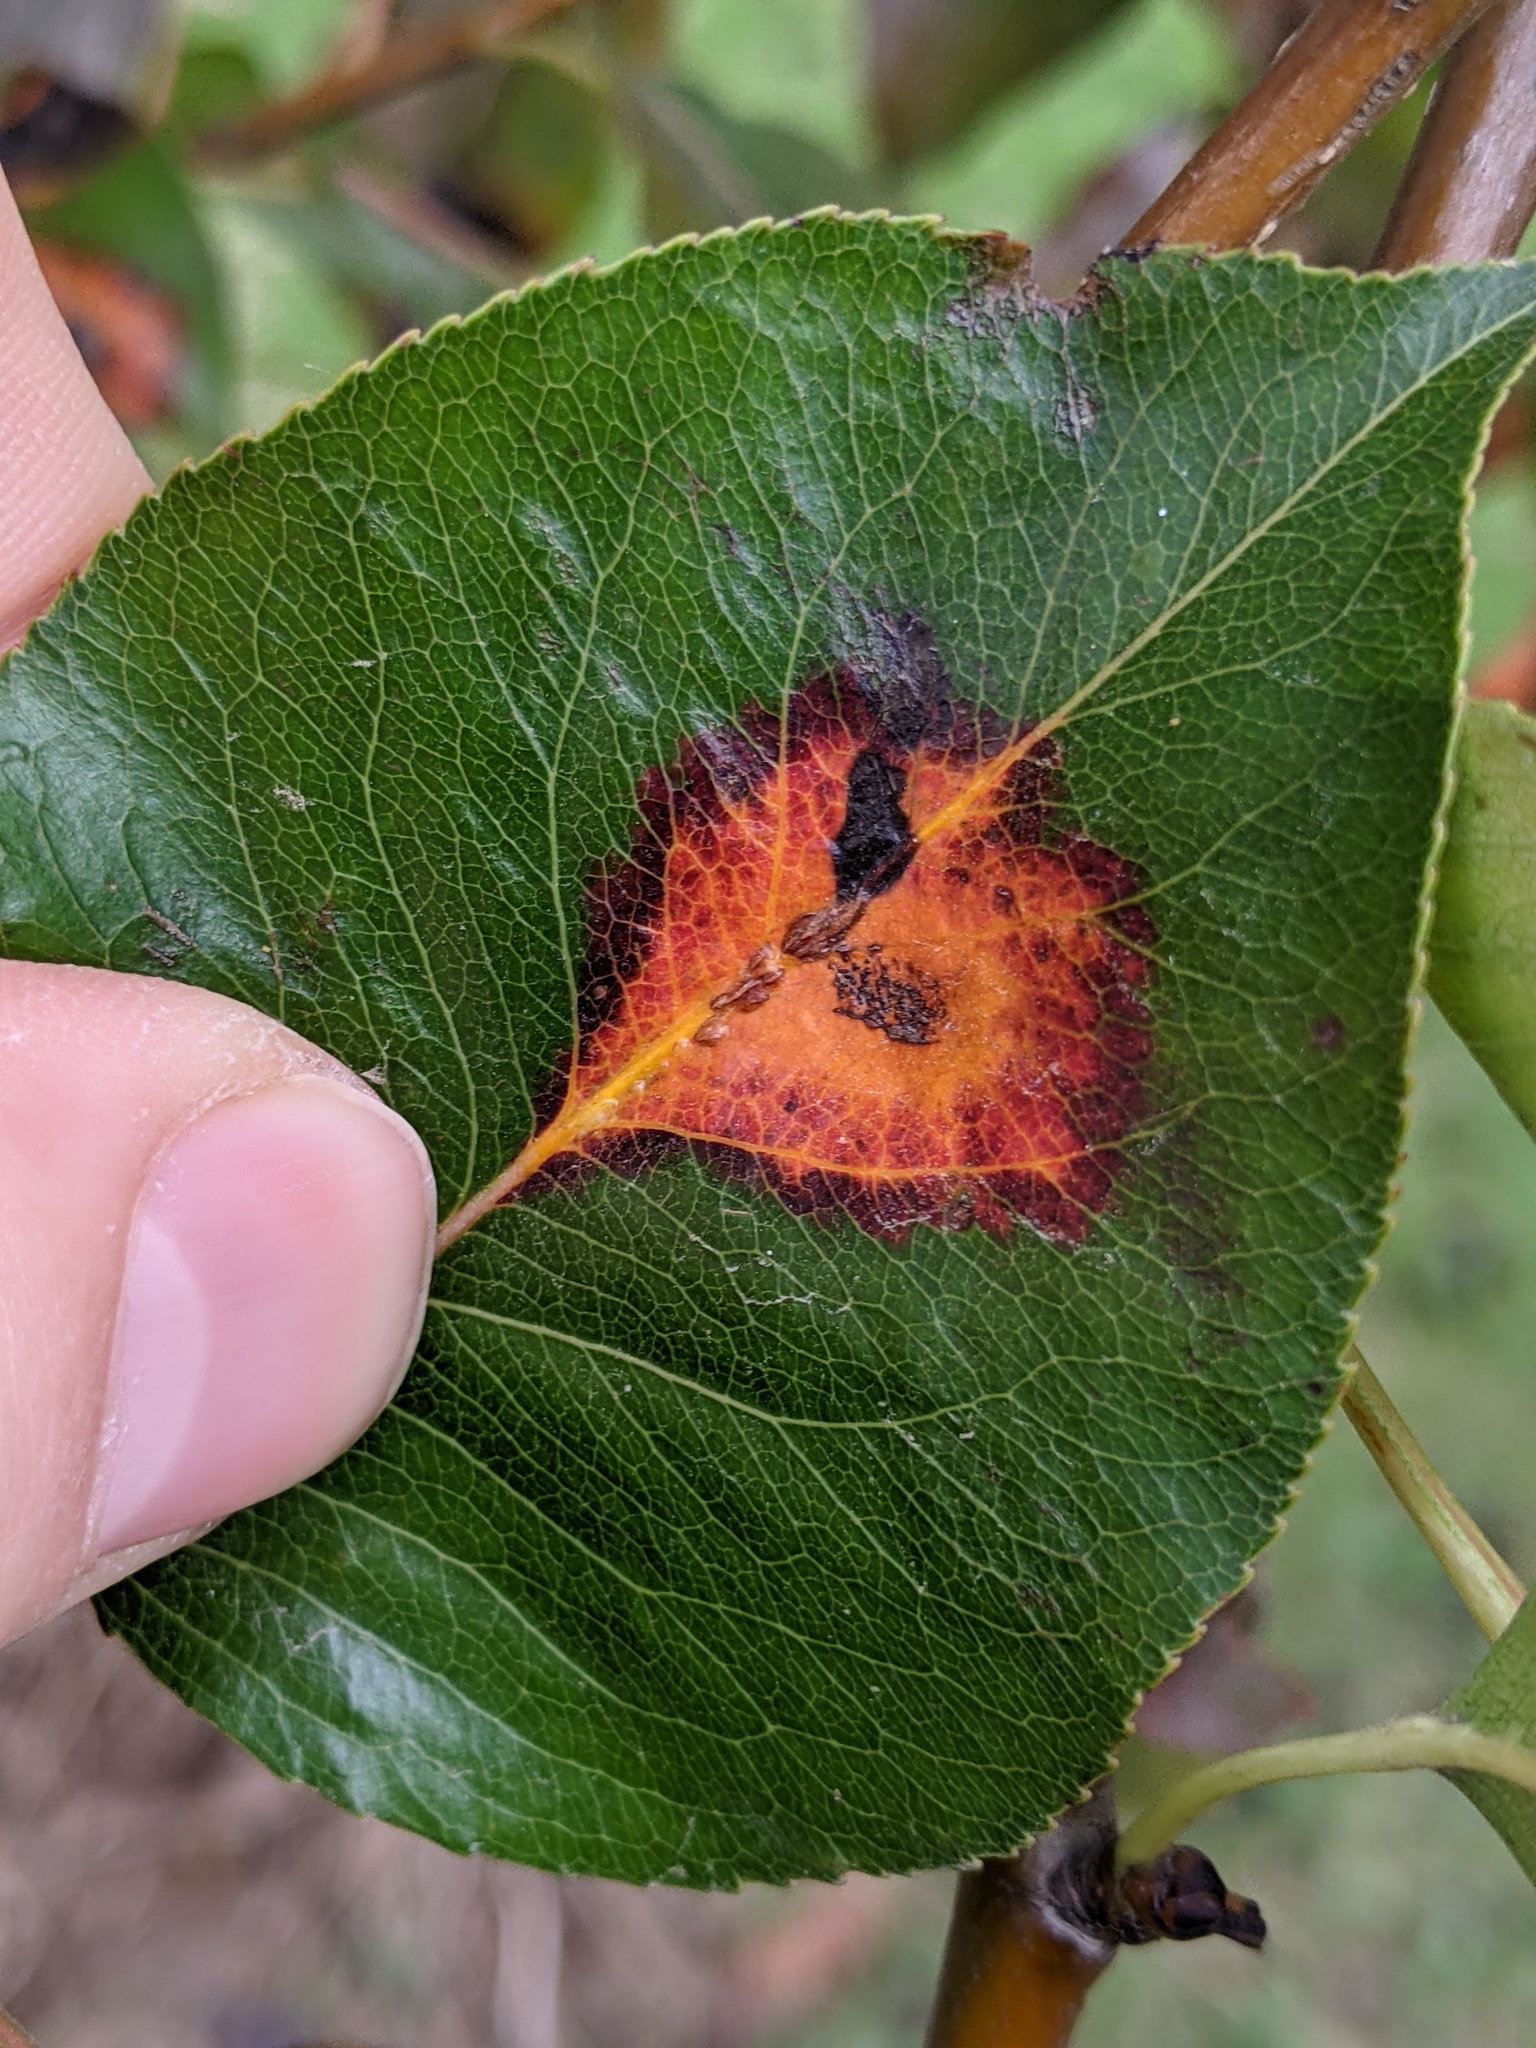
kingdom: Fungi
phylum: Basidiomycota
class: Pucciniomycetes
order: Pucciniales
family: Gymnosporangiaceae
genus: Gymnosporangium
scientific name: Gymnosporangium sabinae
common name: Pear trellis rust fungus
